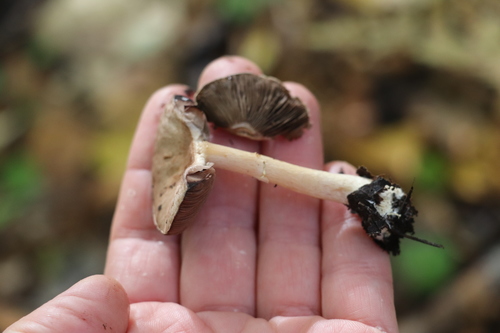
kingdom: Fungi
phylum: Basidiomycota
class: Agaricomycetes
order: Agaricales
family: Agaricaceae
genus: Agaricus
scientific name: Agaricus semotus
